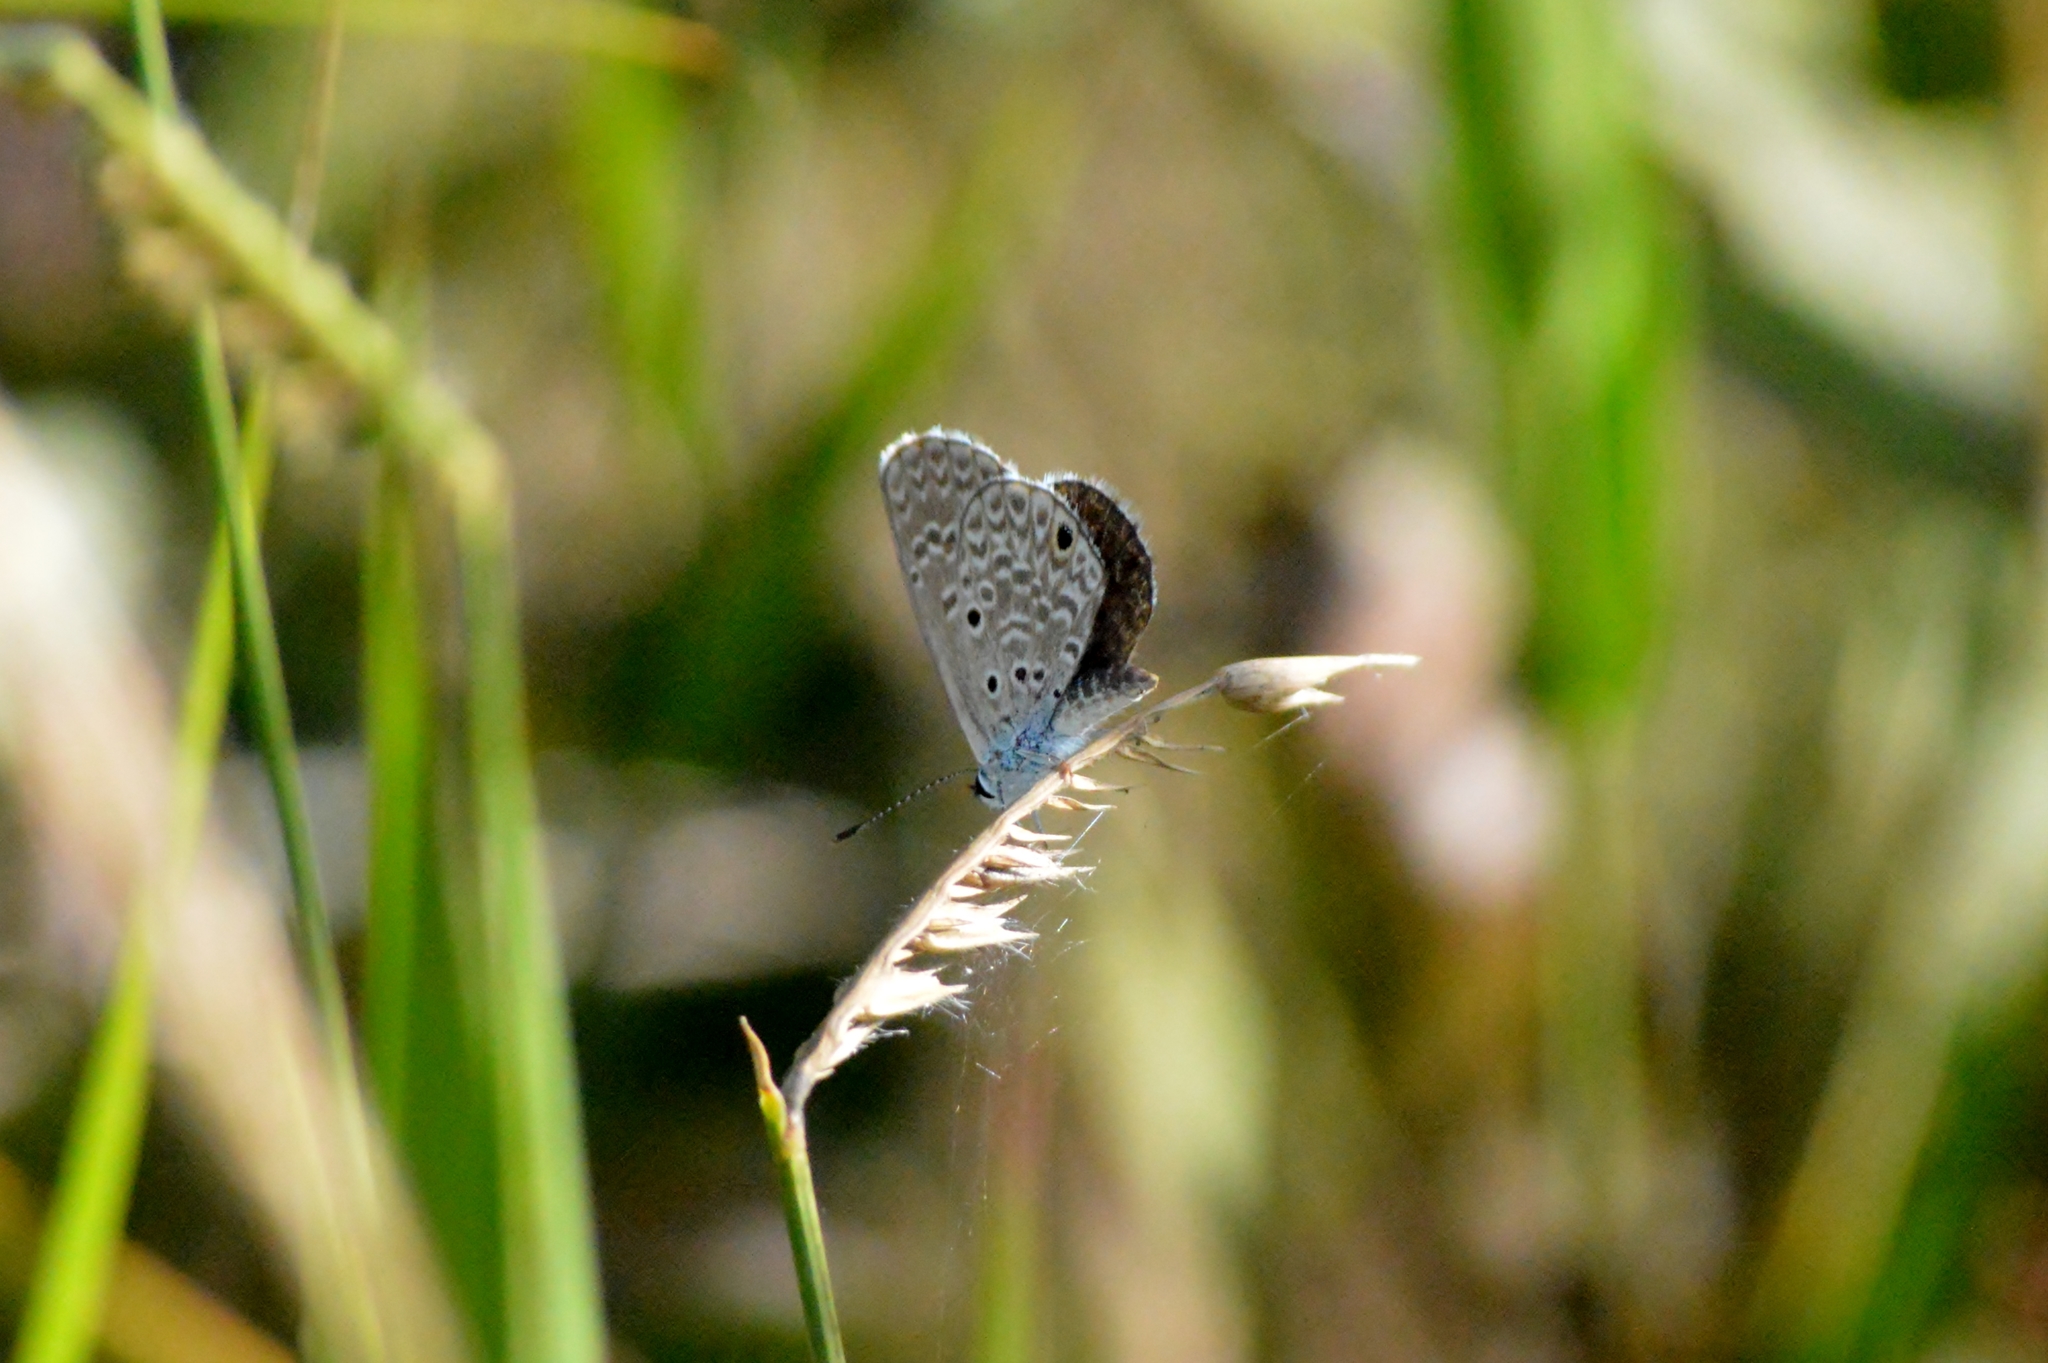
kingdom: Animalia
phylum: Arthropoda
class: Insecta
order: Lepidoptera
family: Lycaenidae
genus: Hemiargus
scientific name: Hemiargus hanno
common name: Common blue
